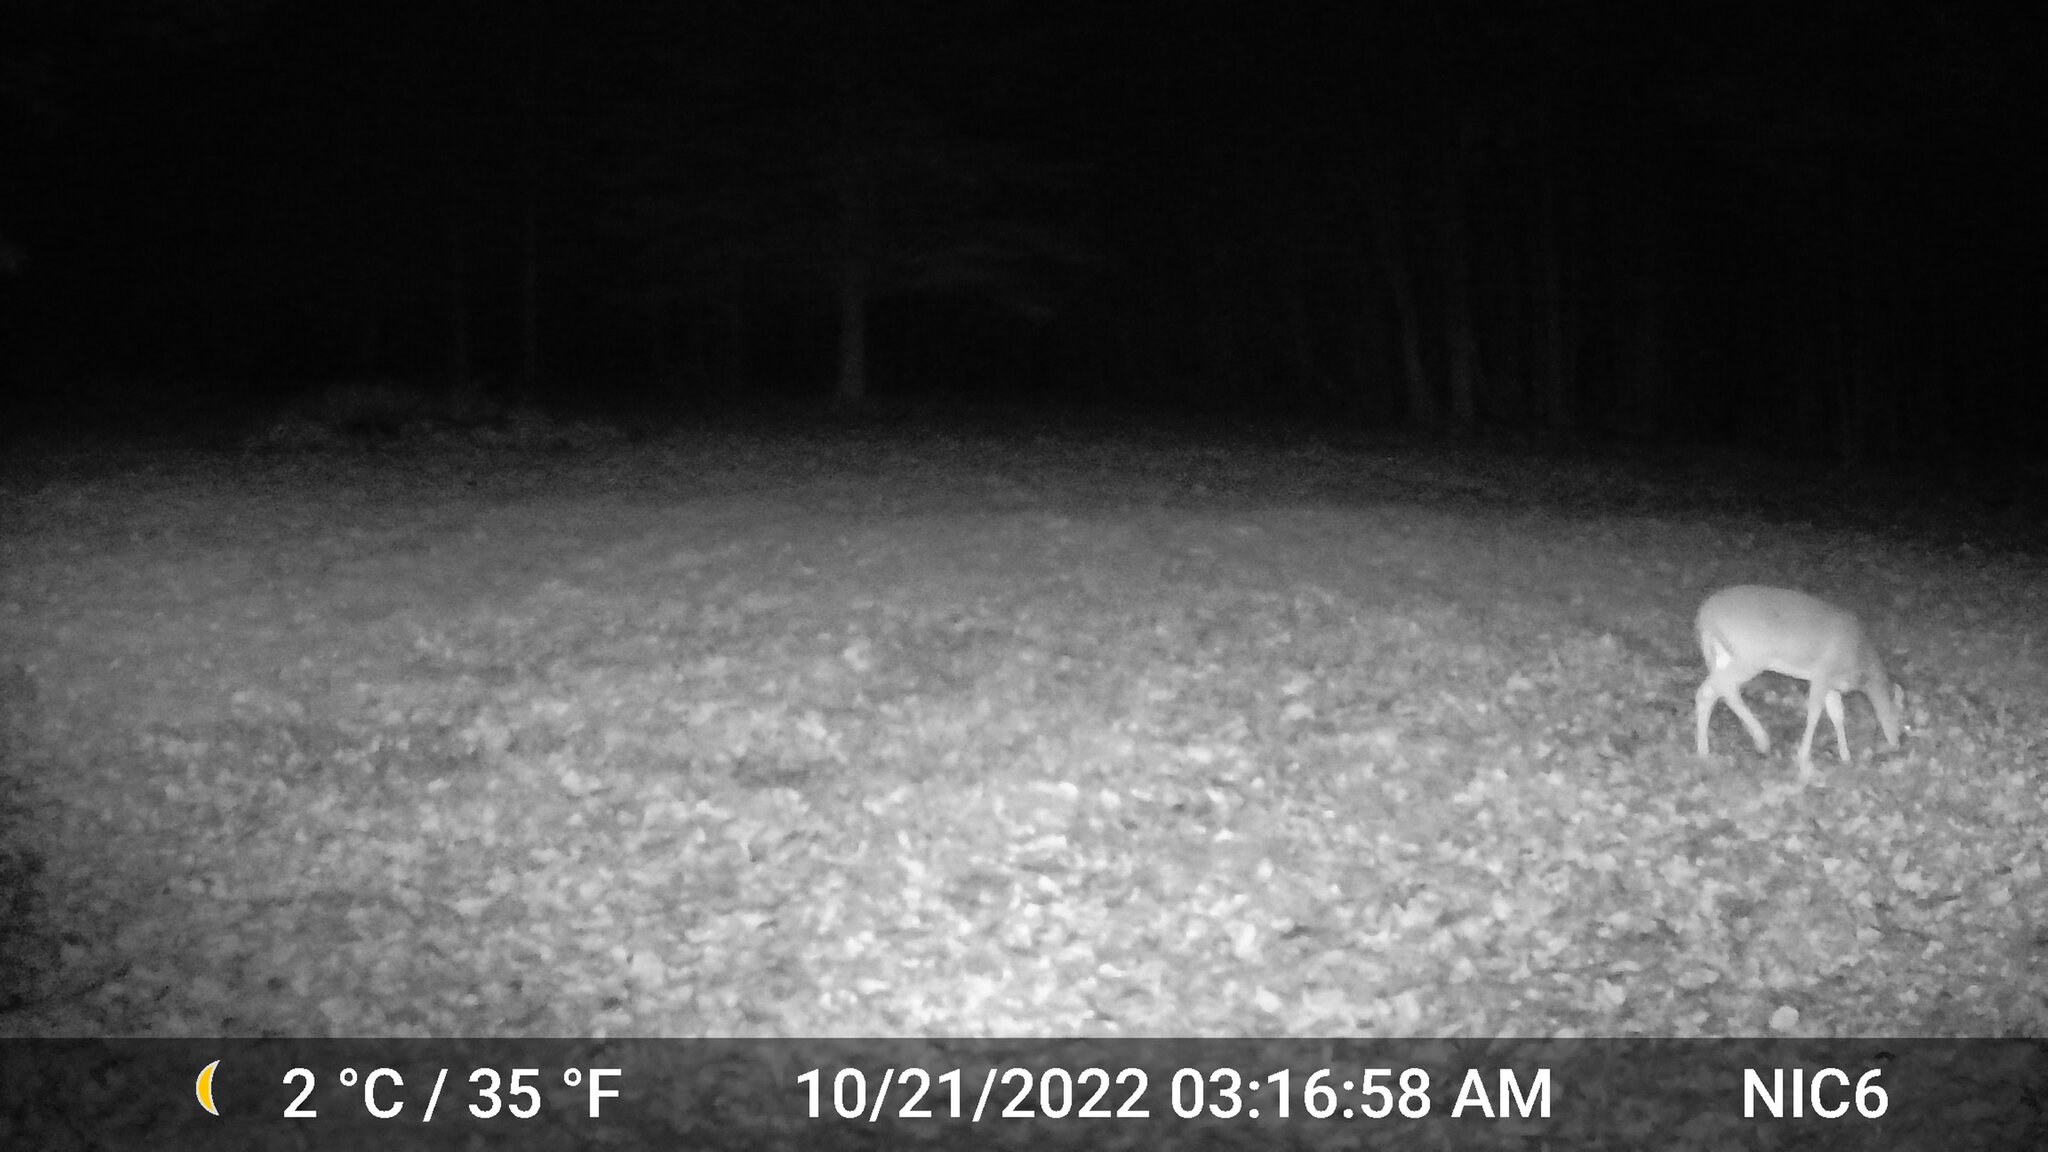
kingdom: Animalia
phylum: Chordata
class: Mammalia
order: Artiodactyla
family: Cervidae
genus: Odocoileus
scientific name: Odocoileus virginianus
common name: White-tailed deer
